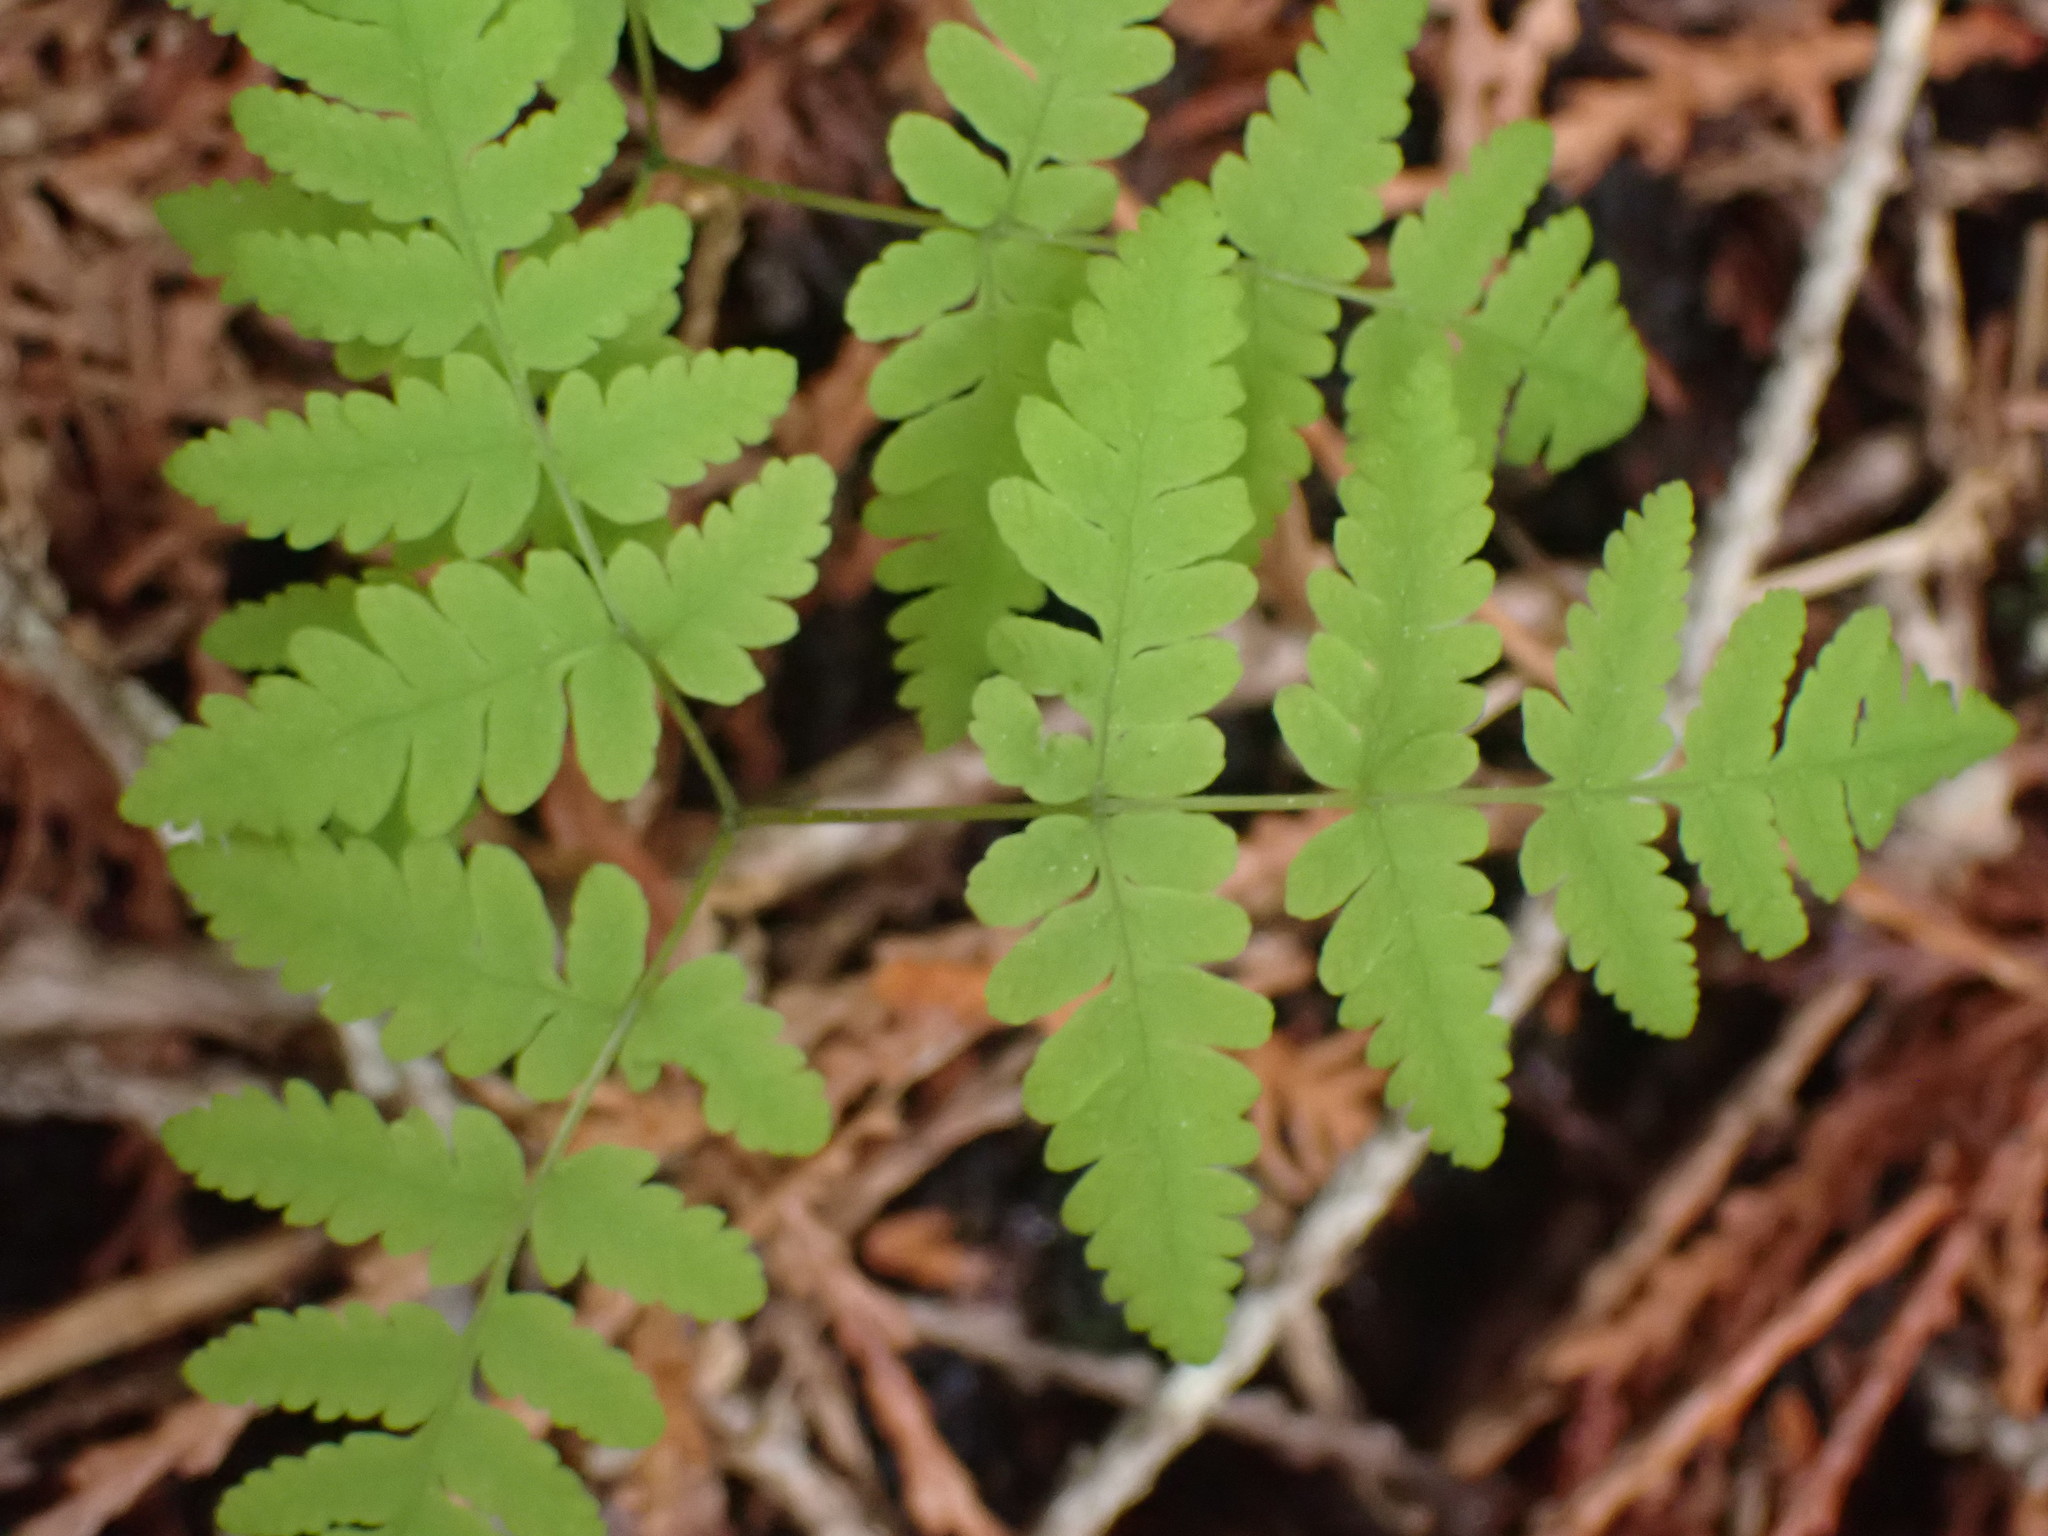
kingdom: Plantae
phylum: Tracheophyta
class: Polypodiopsida
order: Polypodiales
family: Cystopteridaceae
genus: Gymnocarpium
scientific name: Gymnocarpium dryopteris
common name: Oak fern
